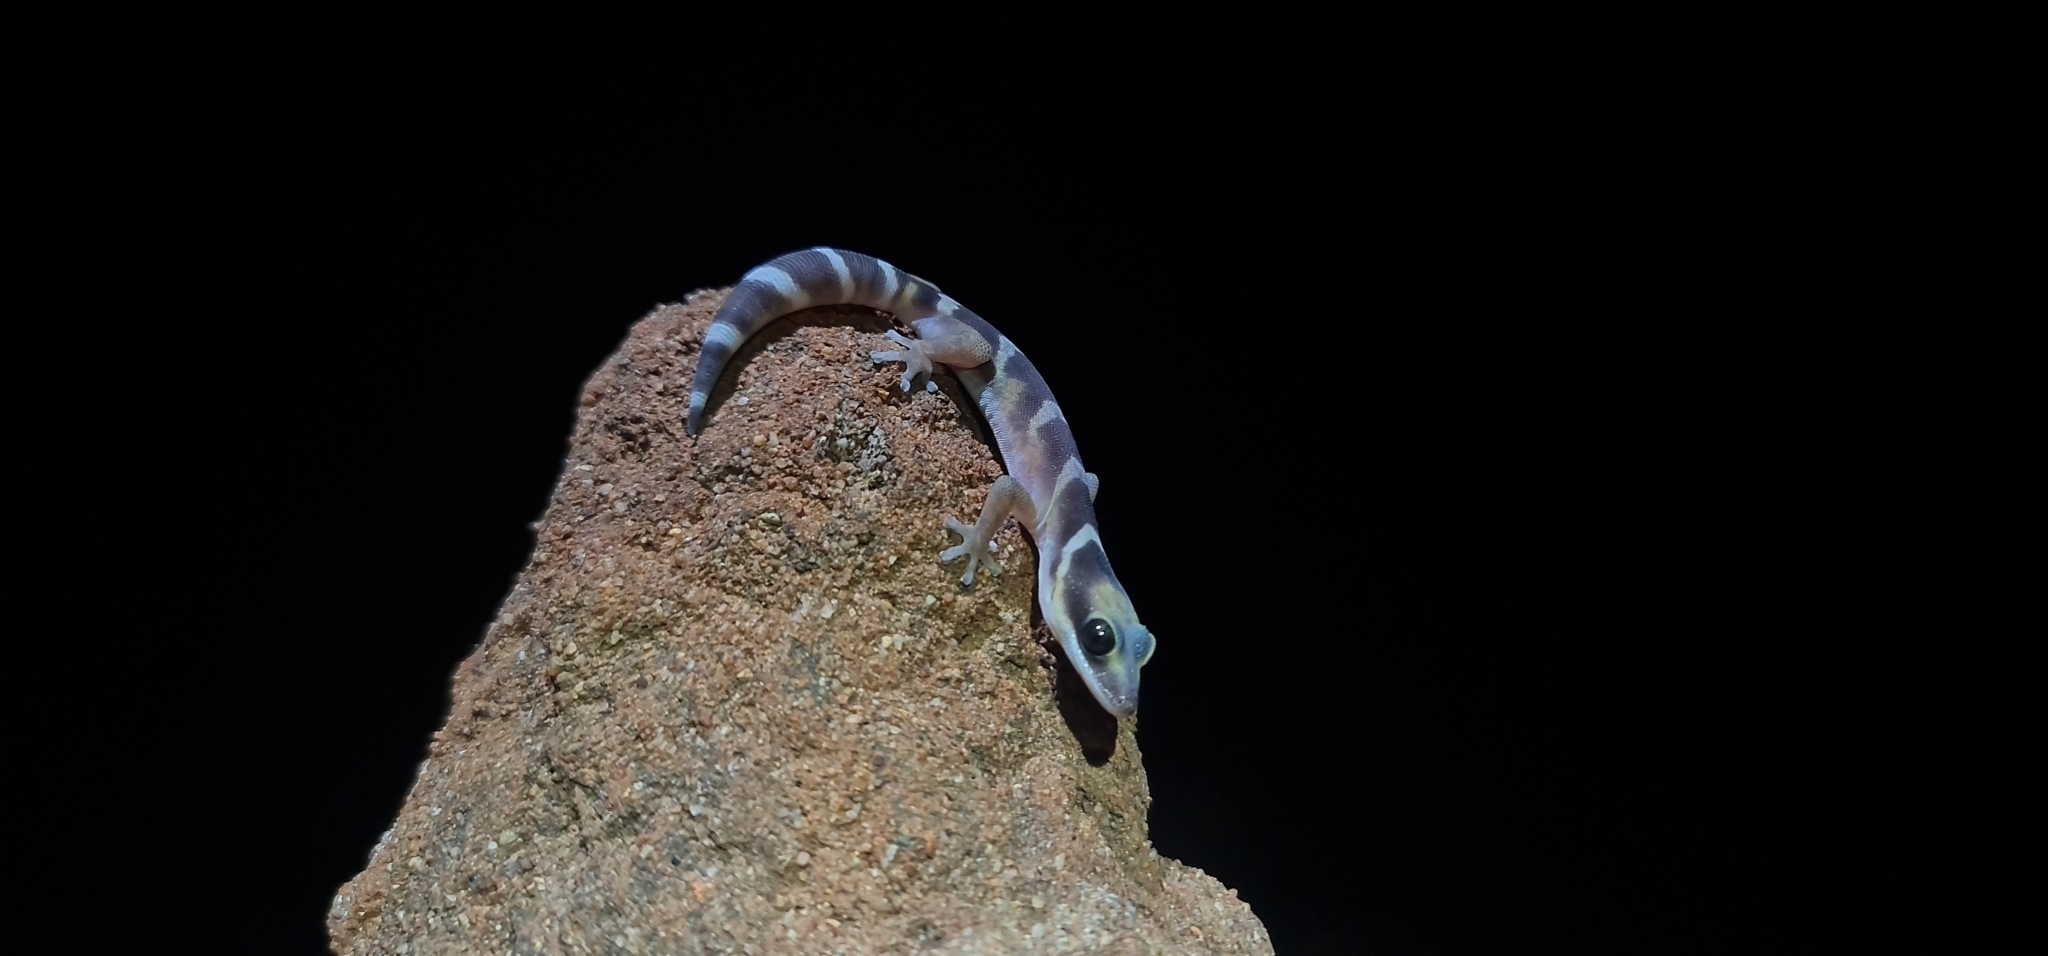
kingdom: Animalia
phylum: Chordata
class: Squamata
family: Diplodactylidae
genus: Oedura
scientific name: Oedura castelnaui
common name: Northern velvet gecko
